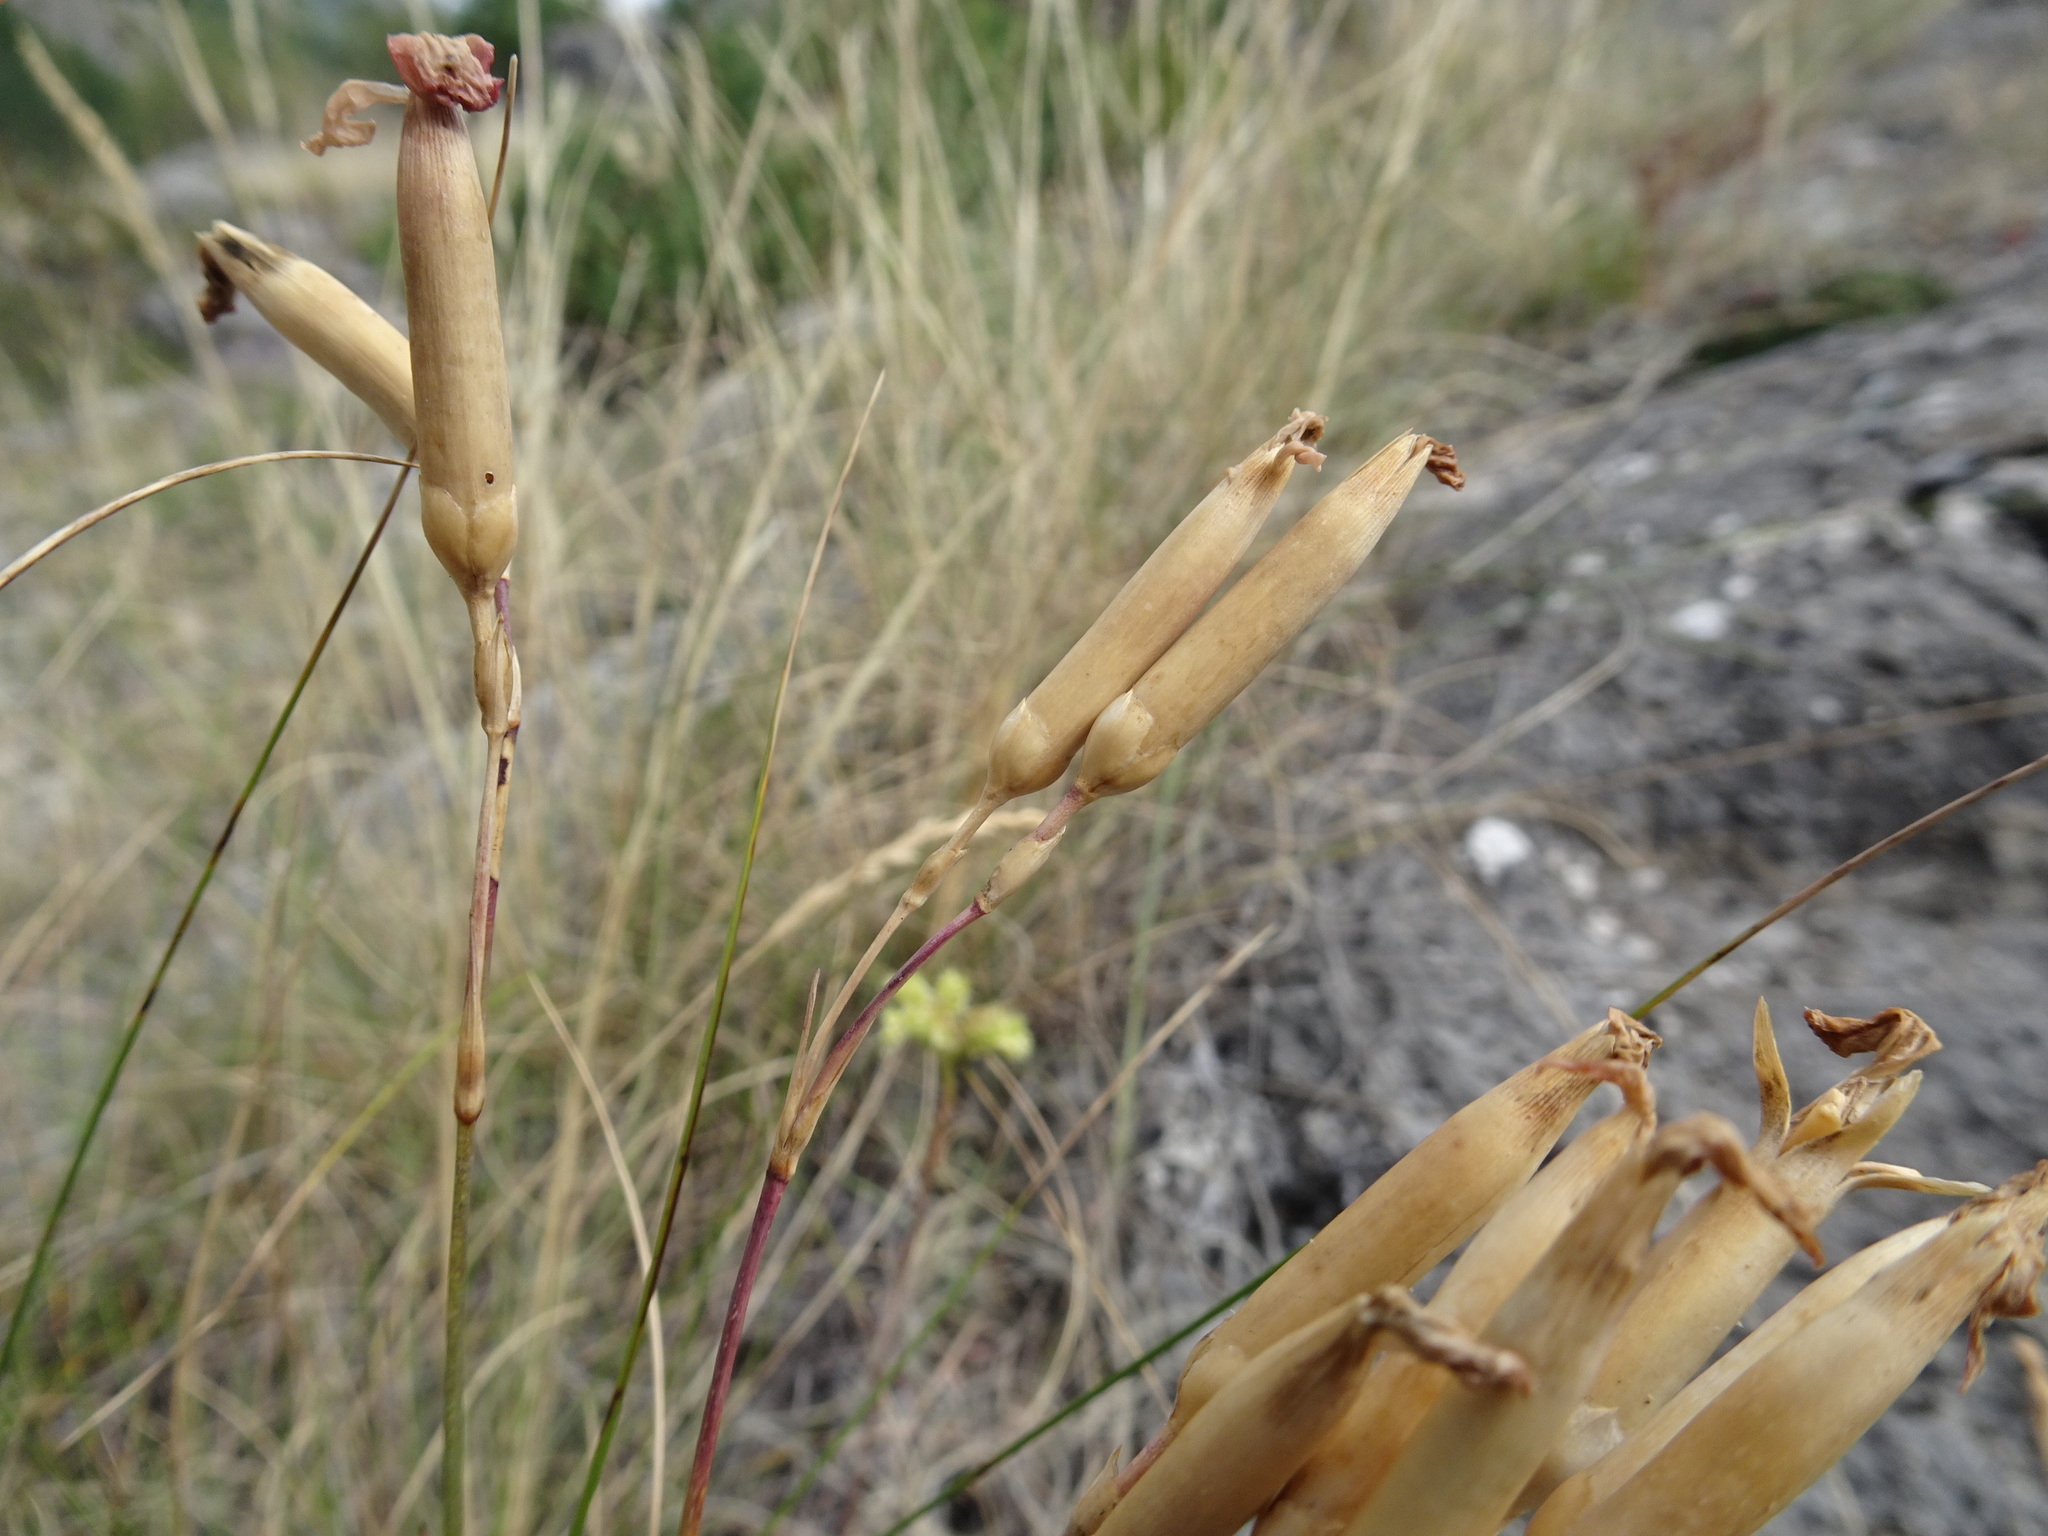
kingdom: Plantae
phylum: Tracheophyta
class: Magnoliopsida
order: Caryophyllales
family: Caryophyllaceae
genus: Dianthus
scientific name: Dianthus sylvestris
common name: Wood pink
